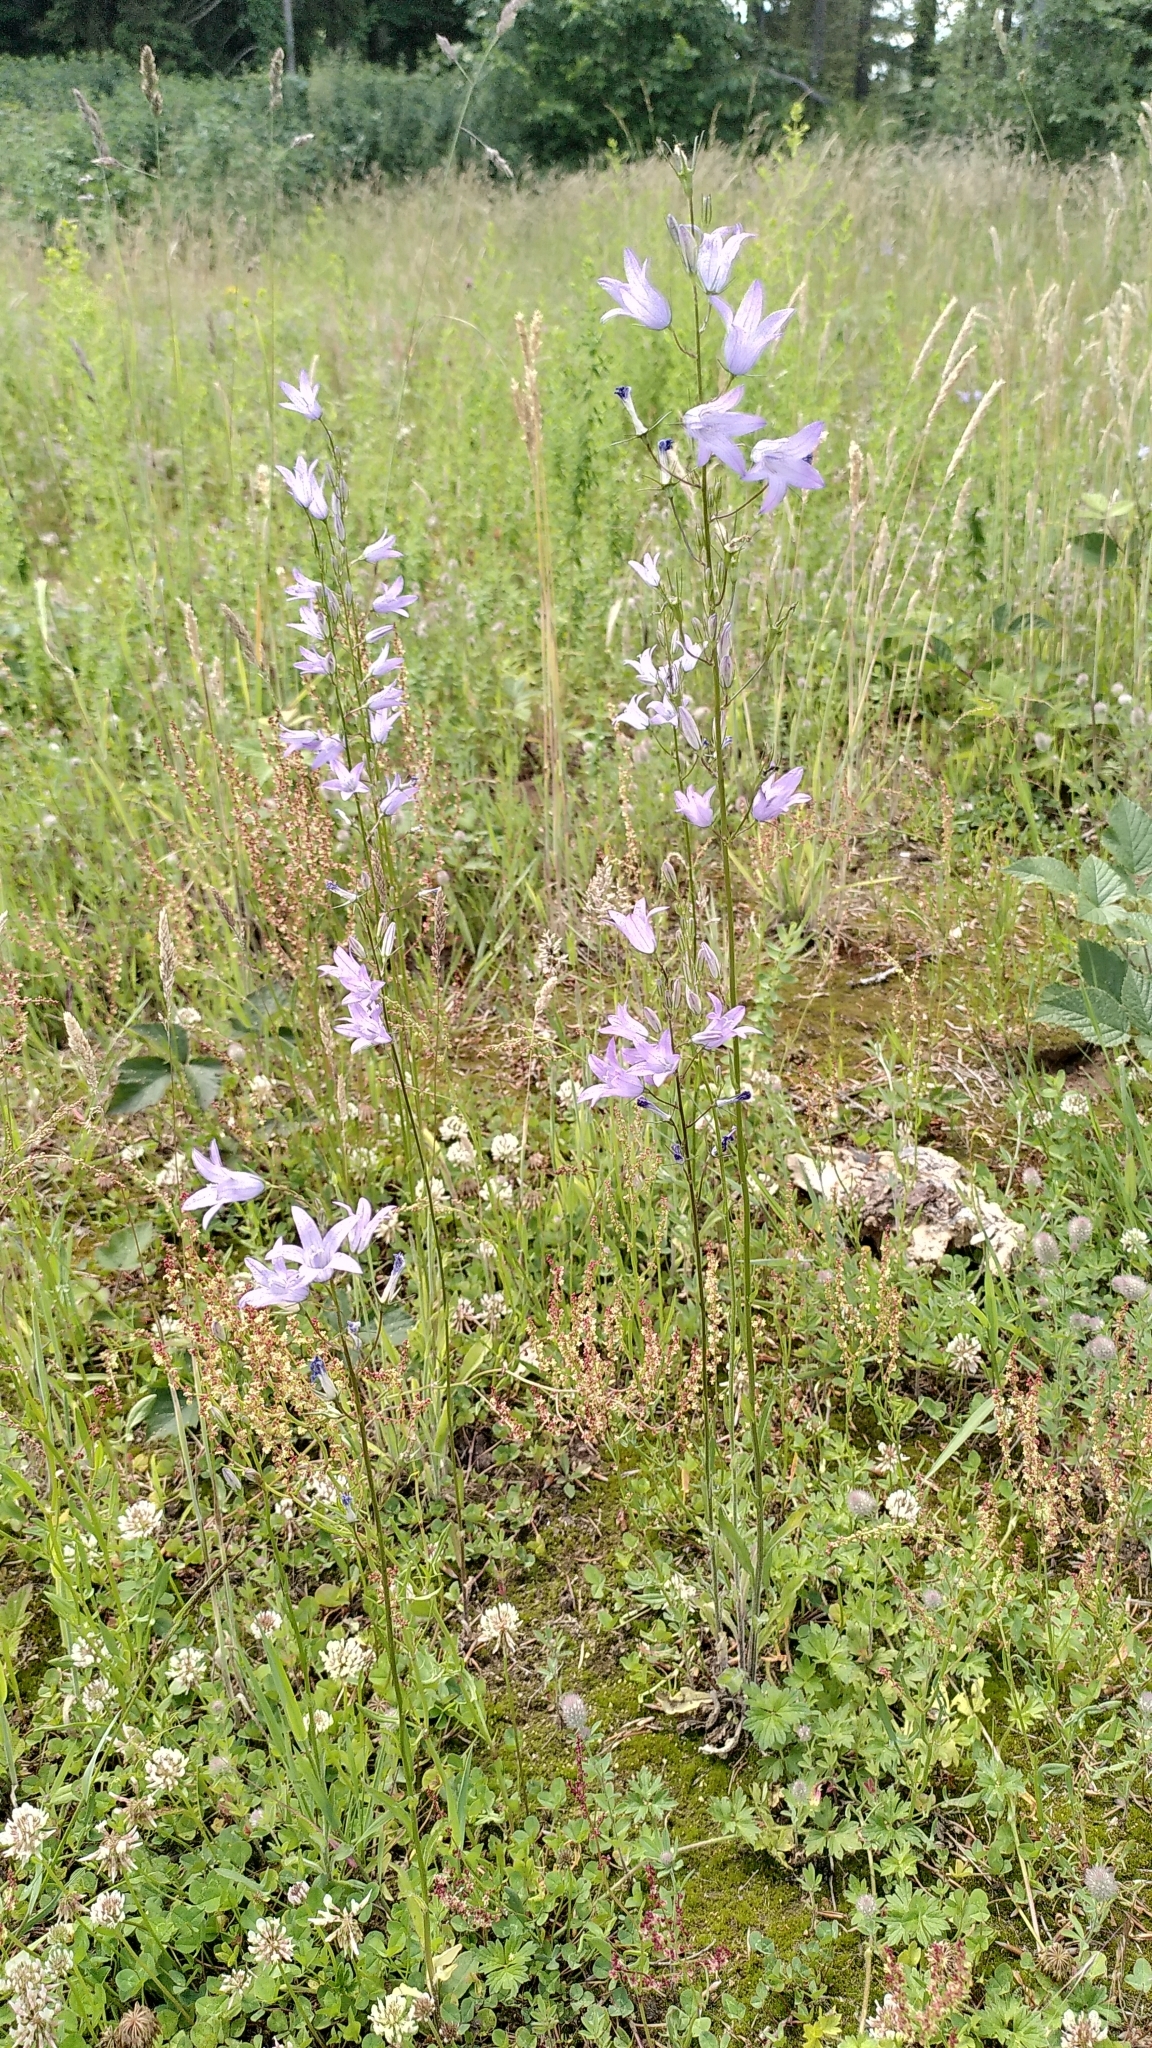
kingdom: Plantae
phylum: Tracheophyta
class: Magnoliopsida
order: Asterales
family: Campanulaceae
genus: Campanula
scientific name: Campanula rapunculus
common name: Rampion bellflower
